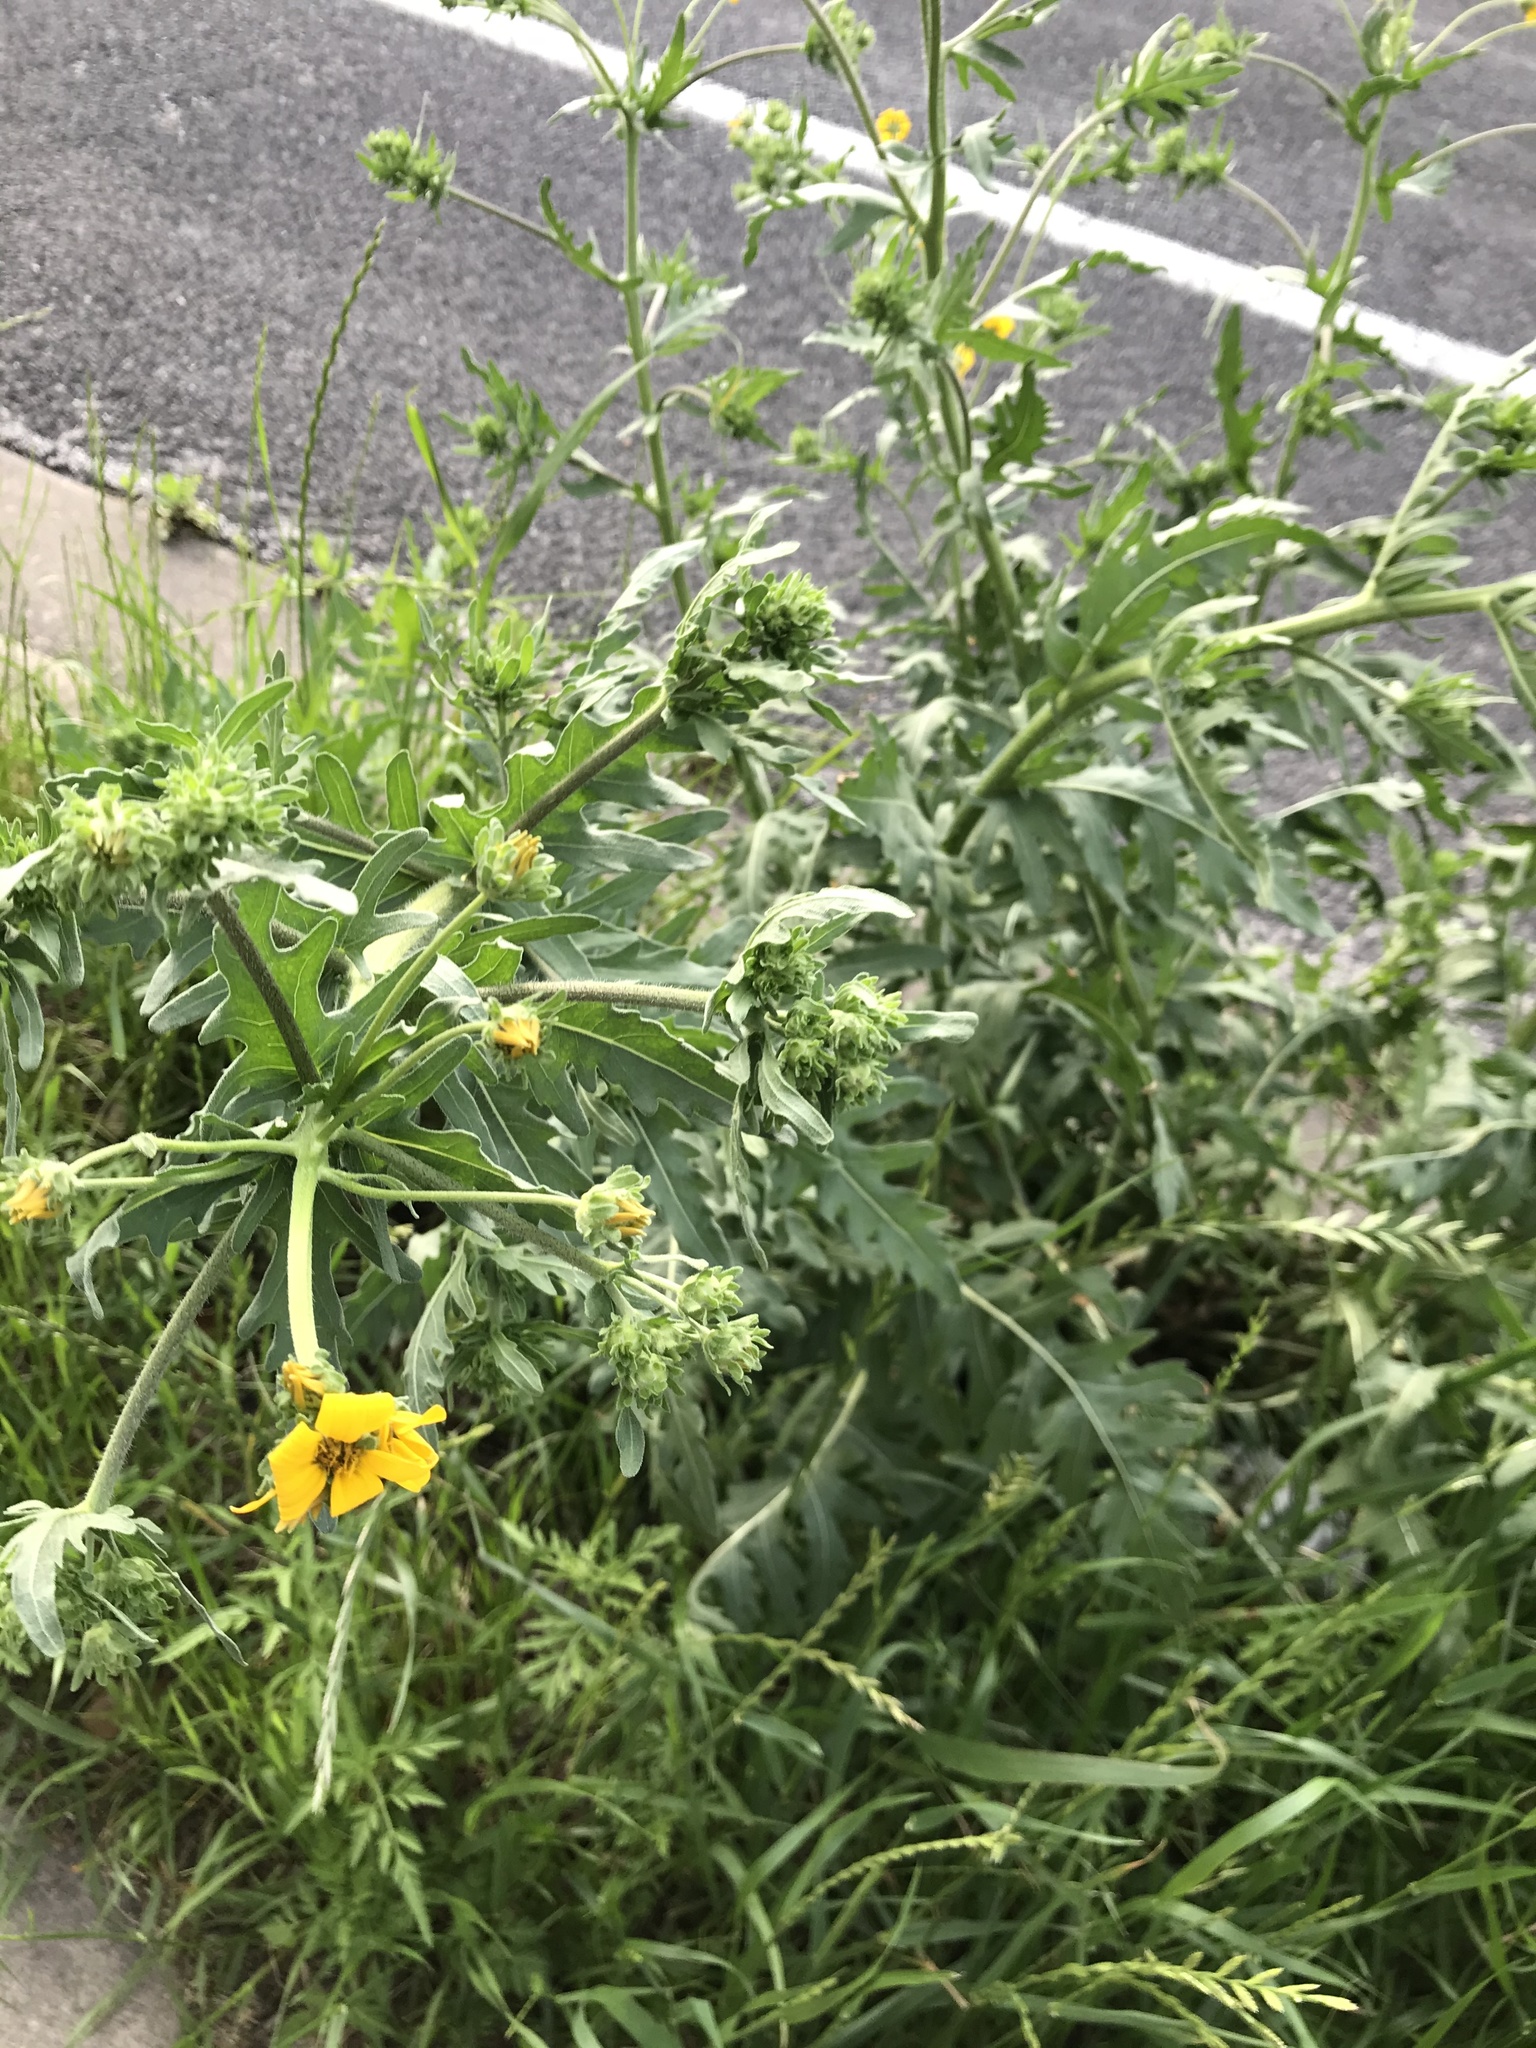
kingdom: Plantae
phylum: Tracheophyta
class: Magnoliopsida
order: Asterales
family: Asteraceae
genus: Engelmannia
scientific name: Engelmannia peristenia
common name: Engelmann's daisy
